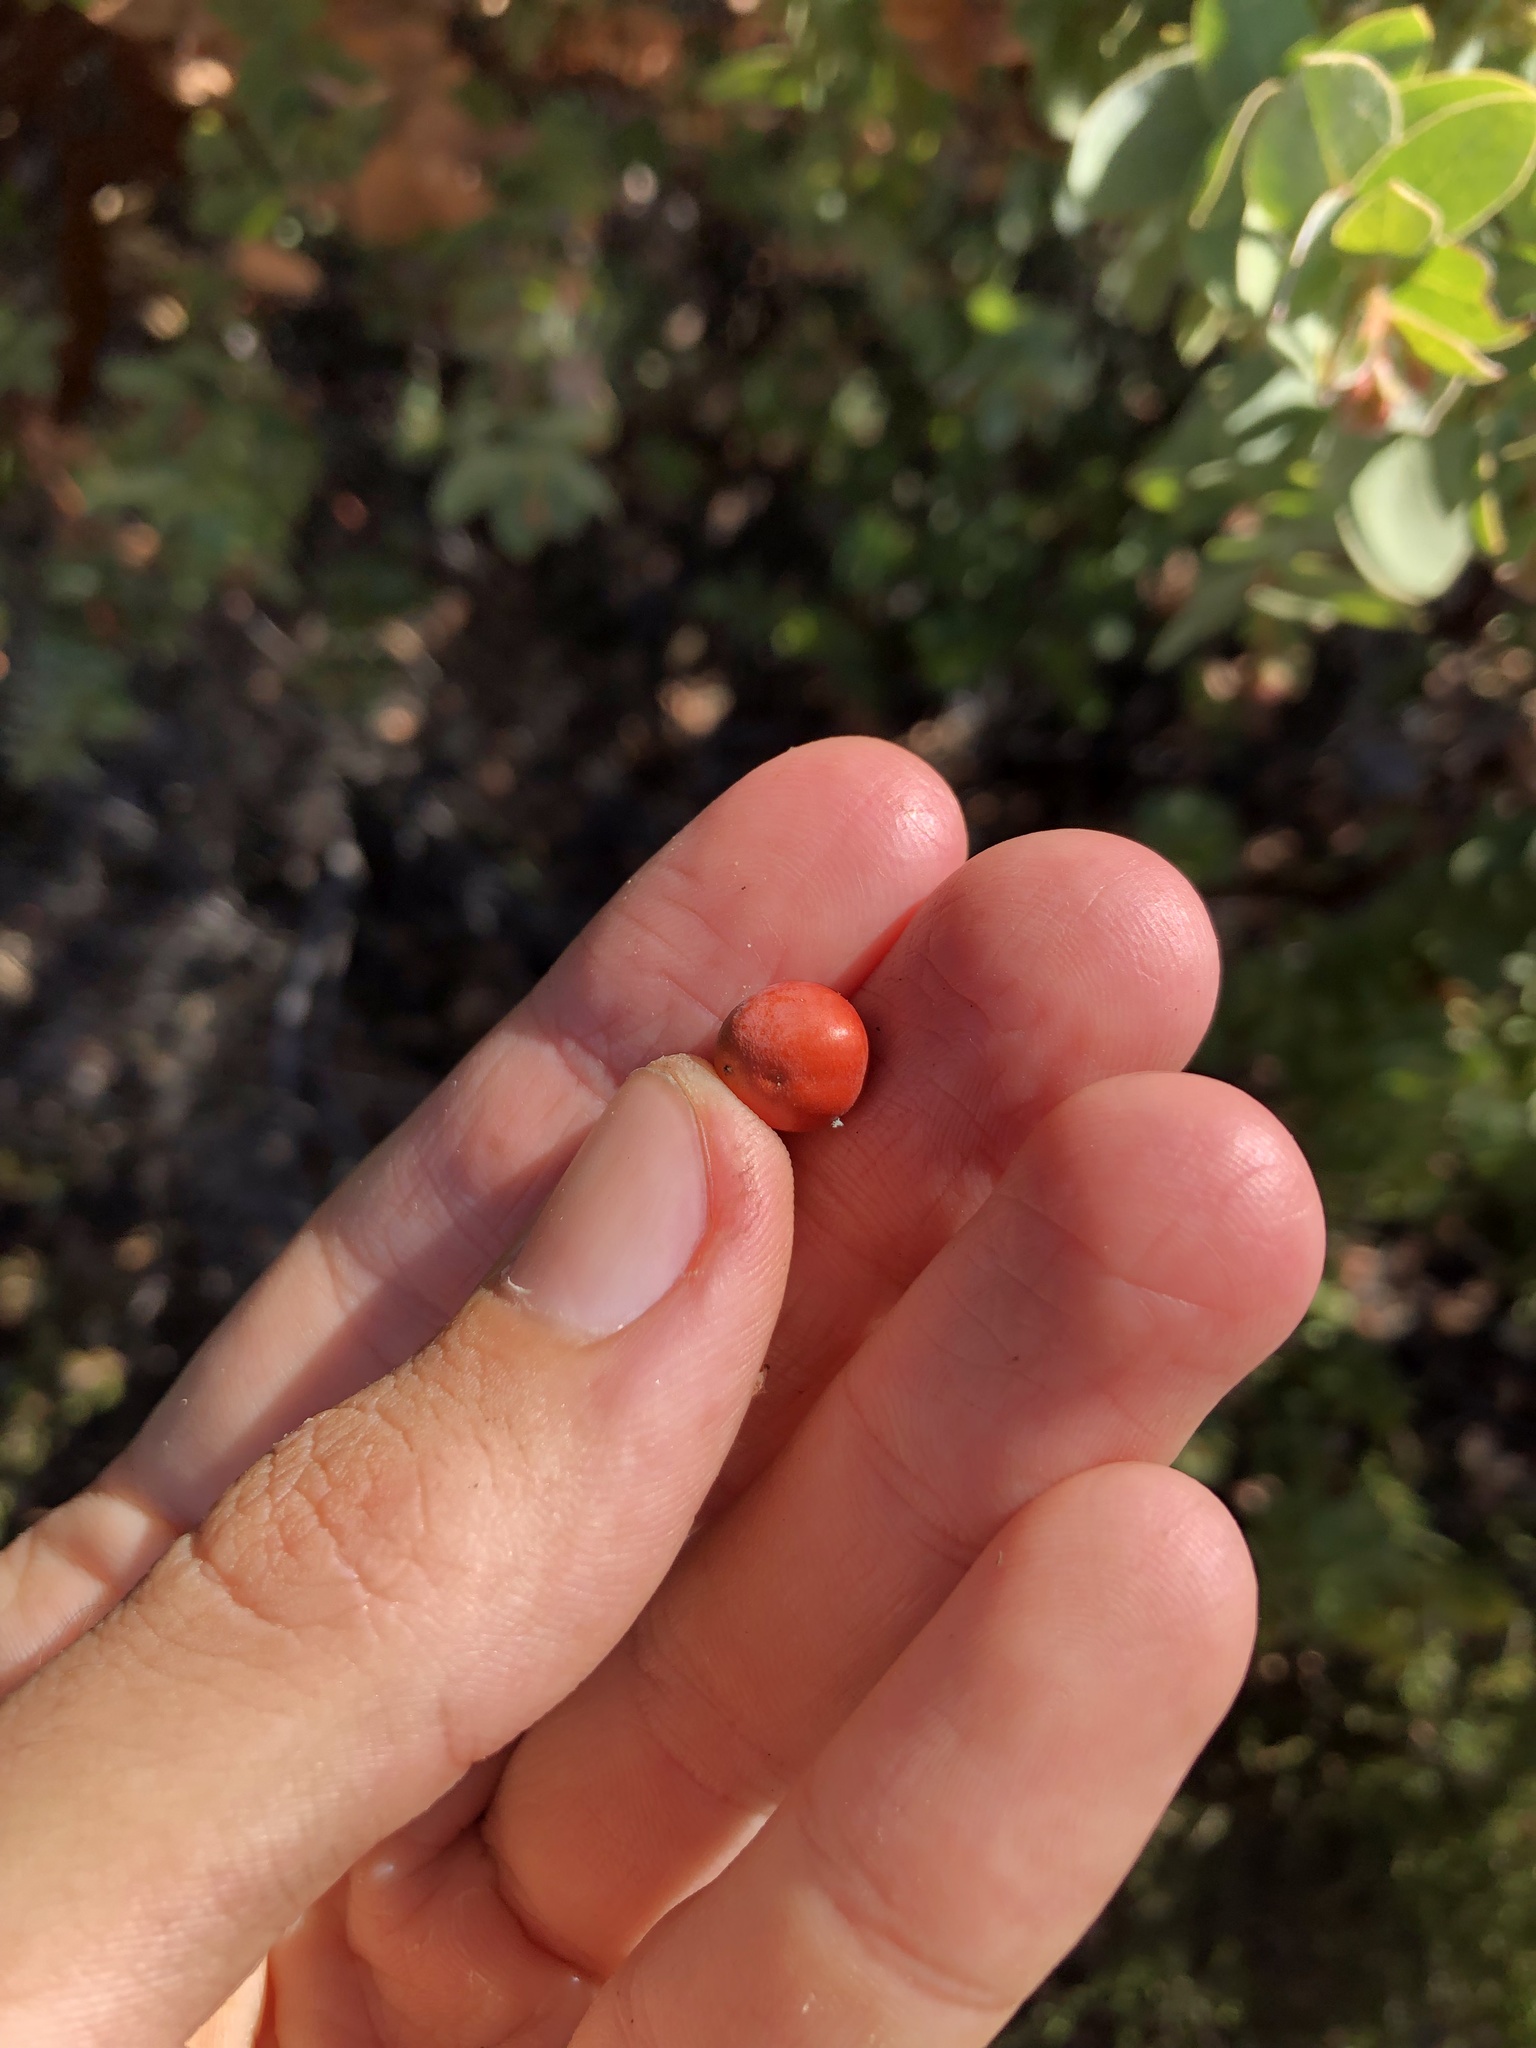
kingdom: Plantae
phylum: Tracheophyta
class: Magnoliopsida
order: Ericales
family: Ericaceae
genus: Arctostaphylos
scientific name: Arctostaphylos refugioensis
